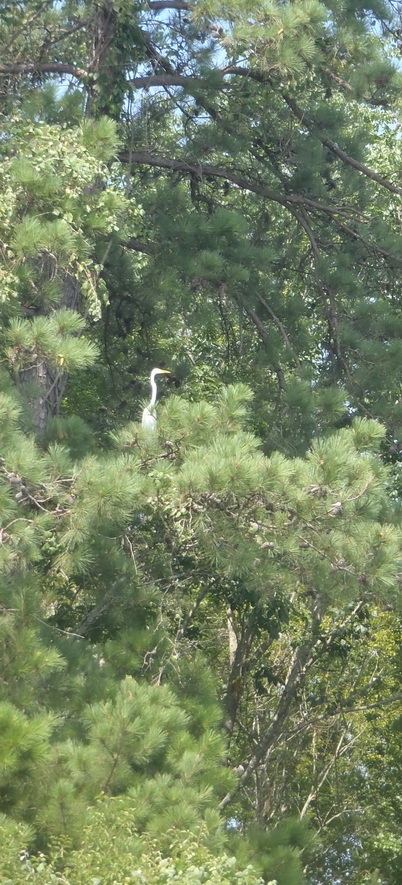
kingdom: Animalia
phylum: Chordata
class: Aves
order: Pelecaniformes
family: Ardeidae
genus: Ardea
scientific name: Ardea alba
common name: Great egret
